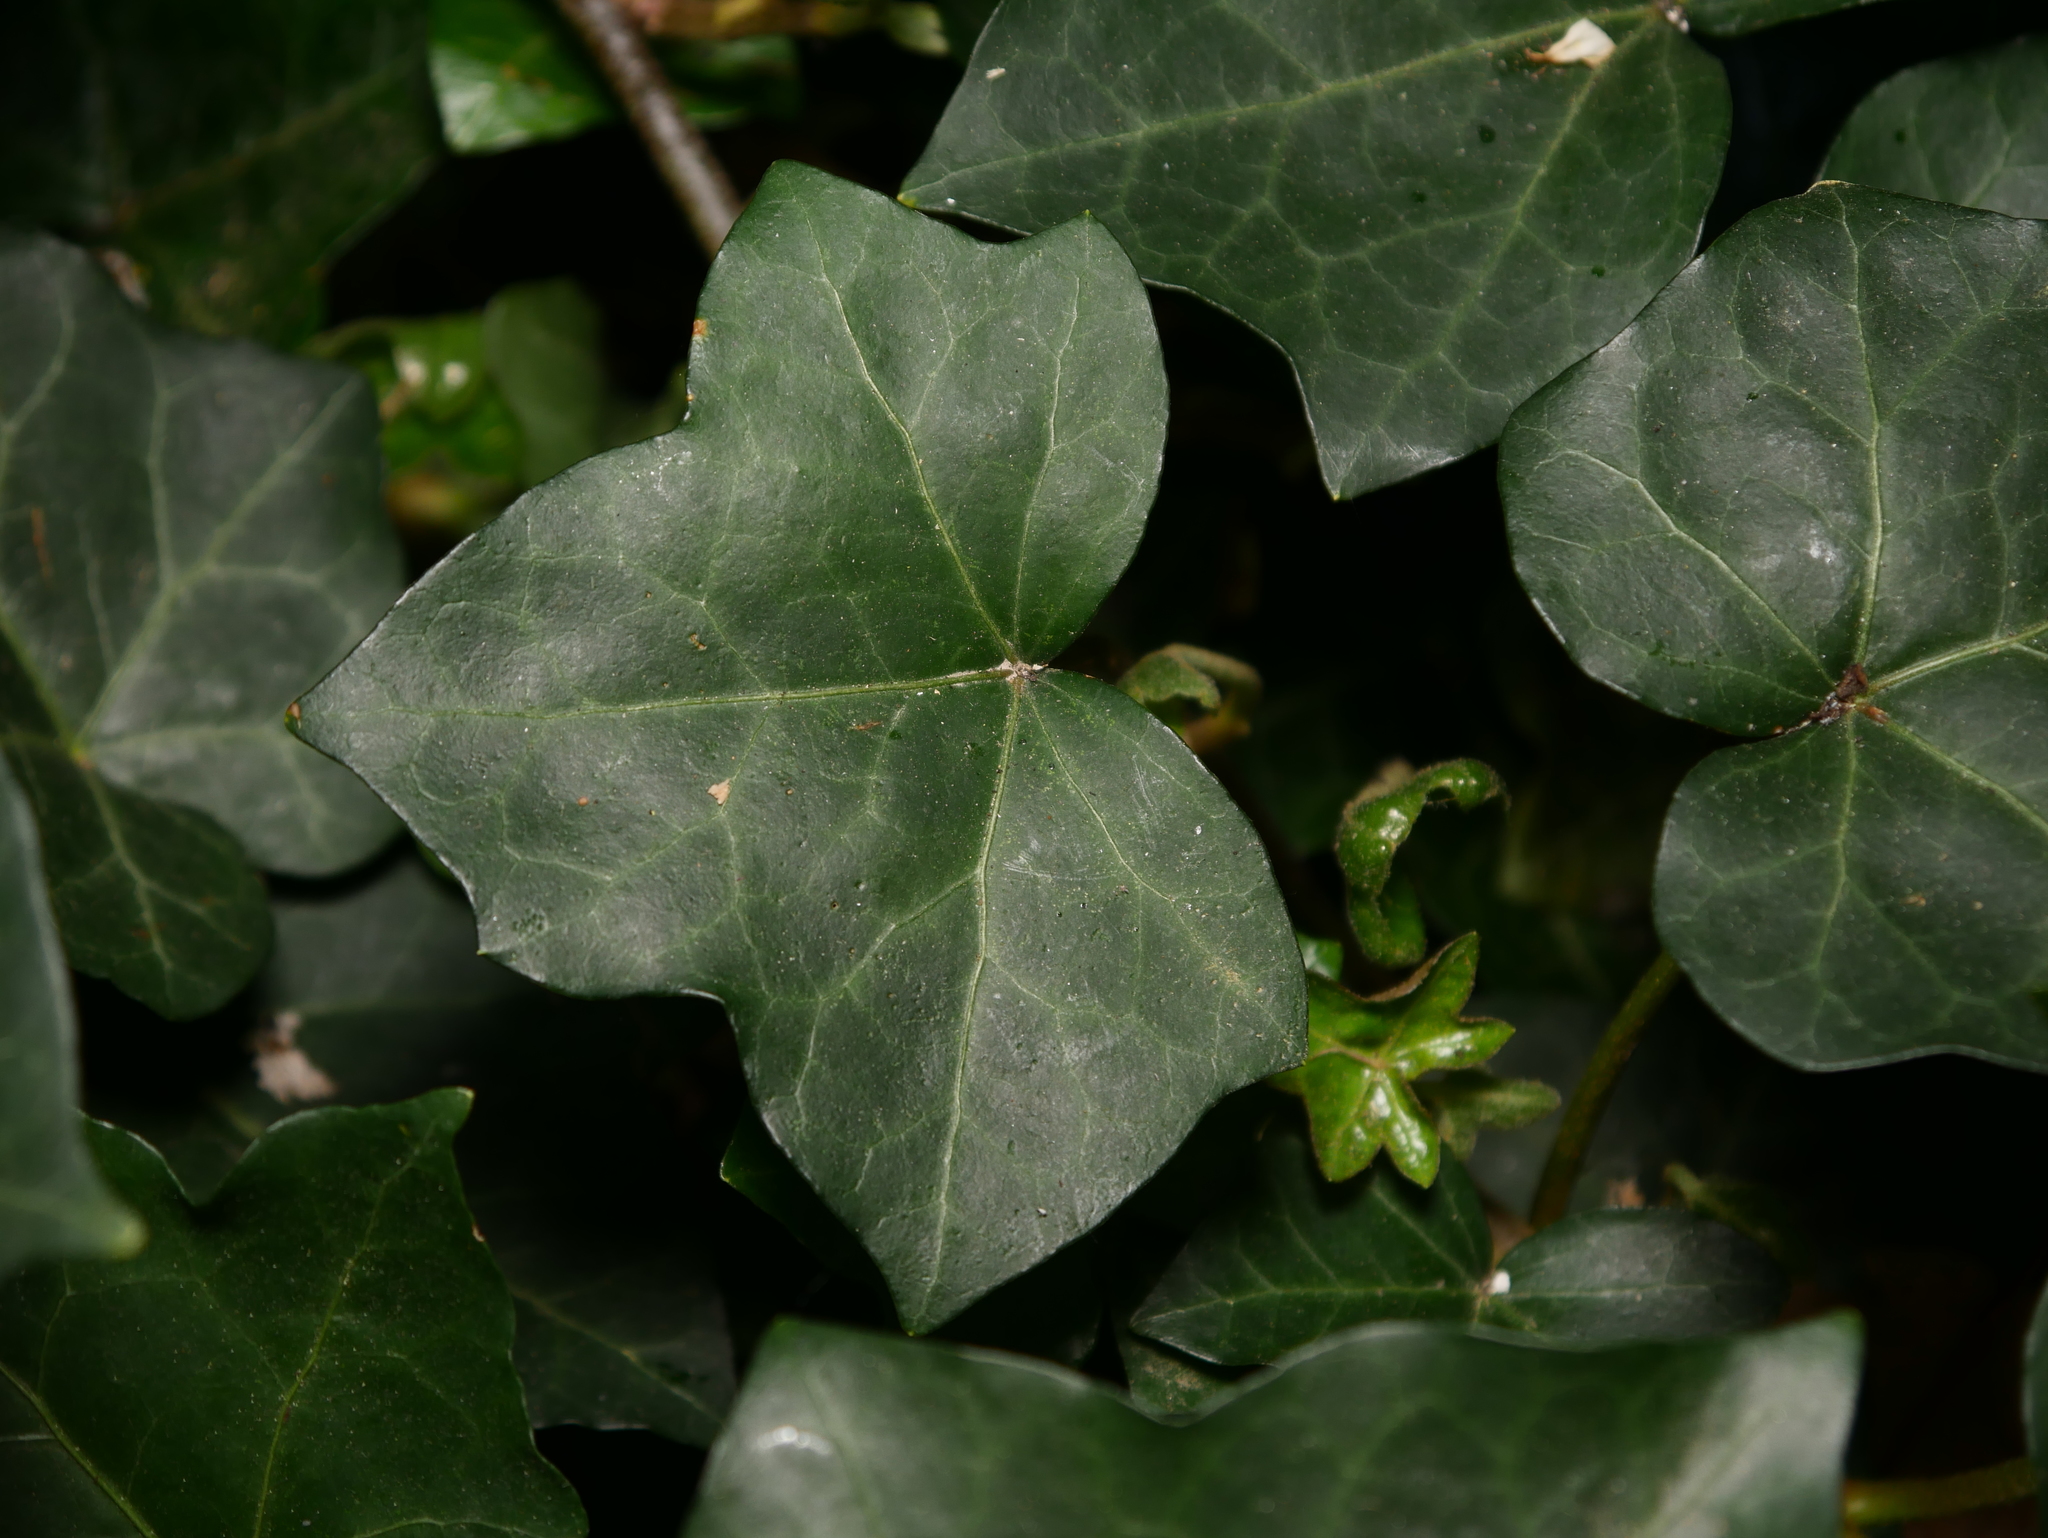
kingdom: Plantae
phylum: Tracheophyta
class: Magnoliopsida
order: Apiales
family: Araliaceae
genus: Hedera
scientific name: Hedera helix
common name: Ivy
